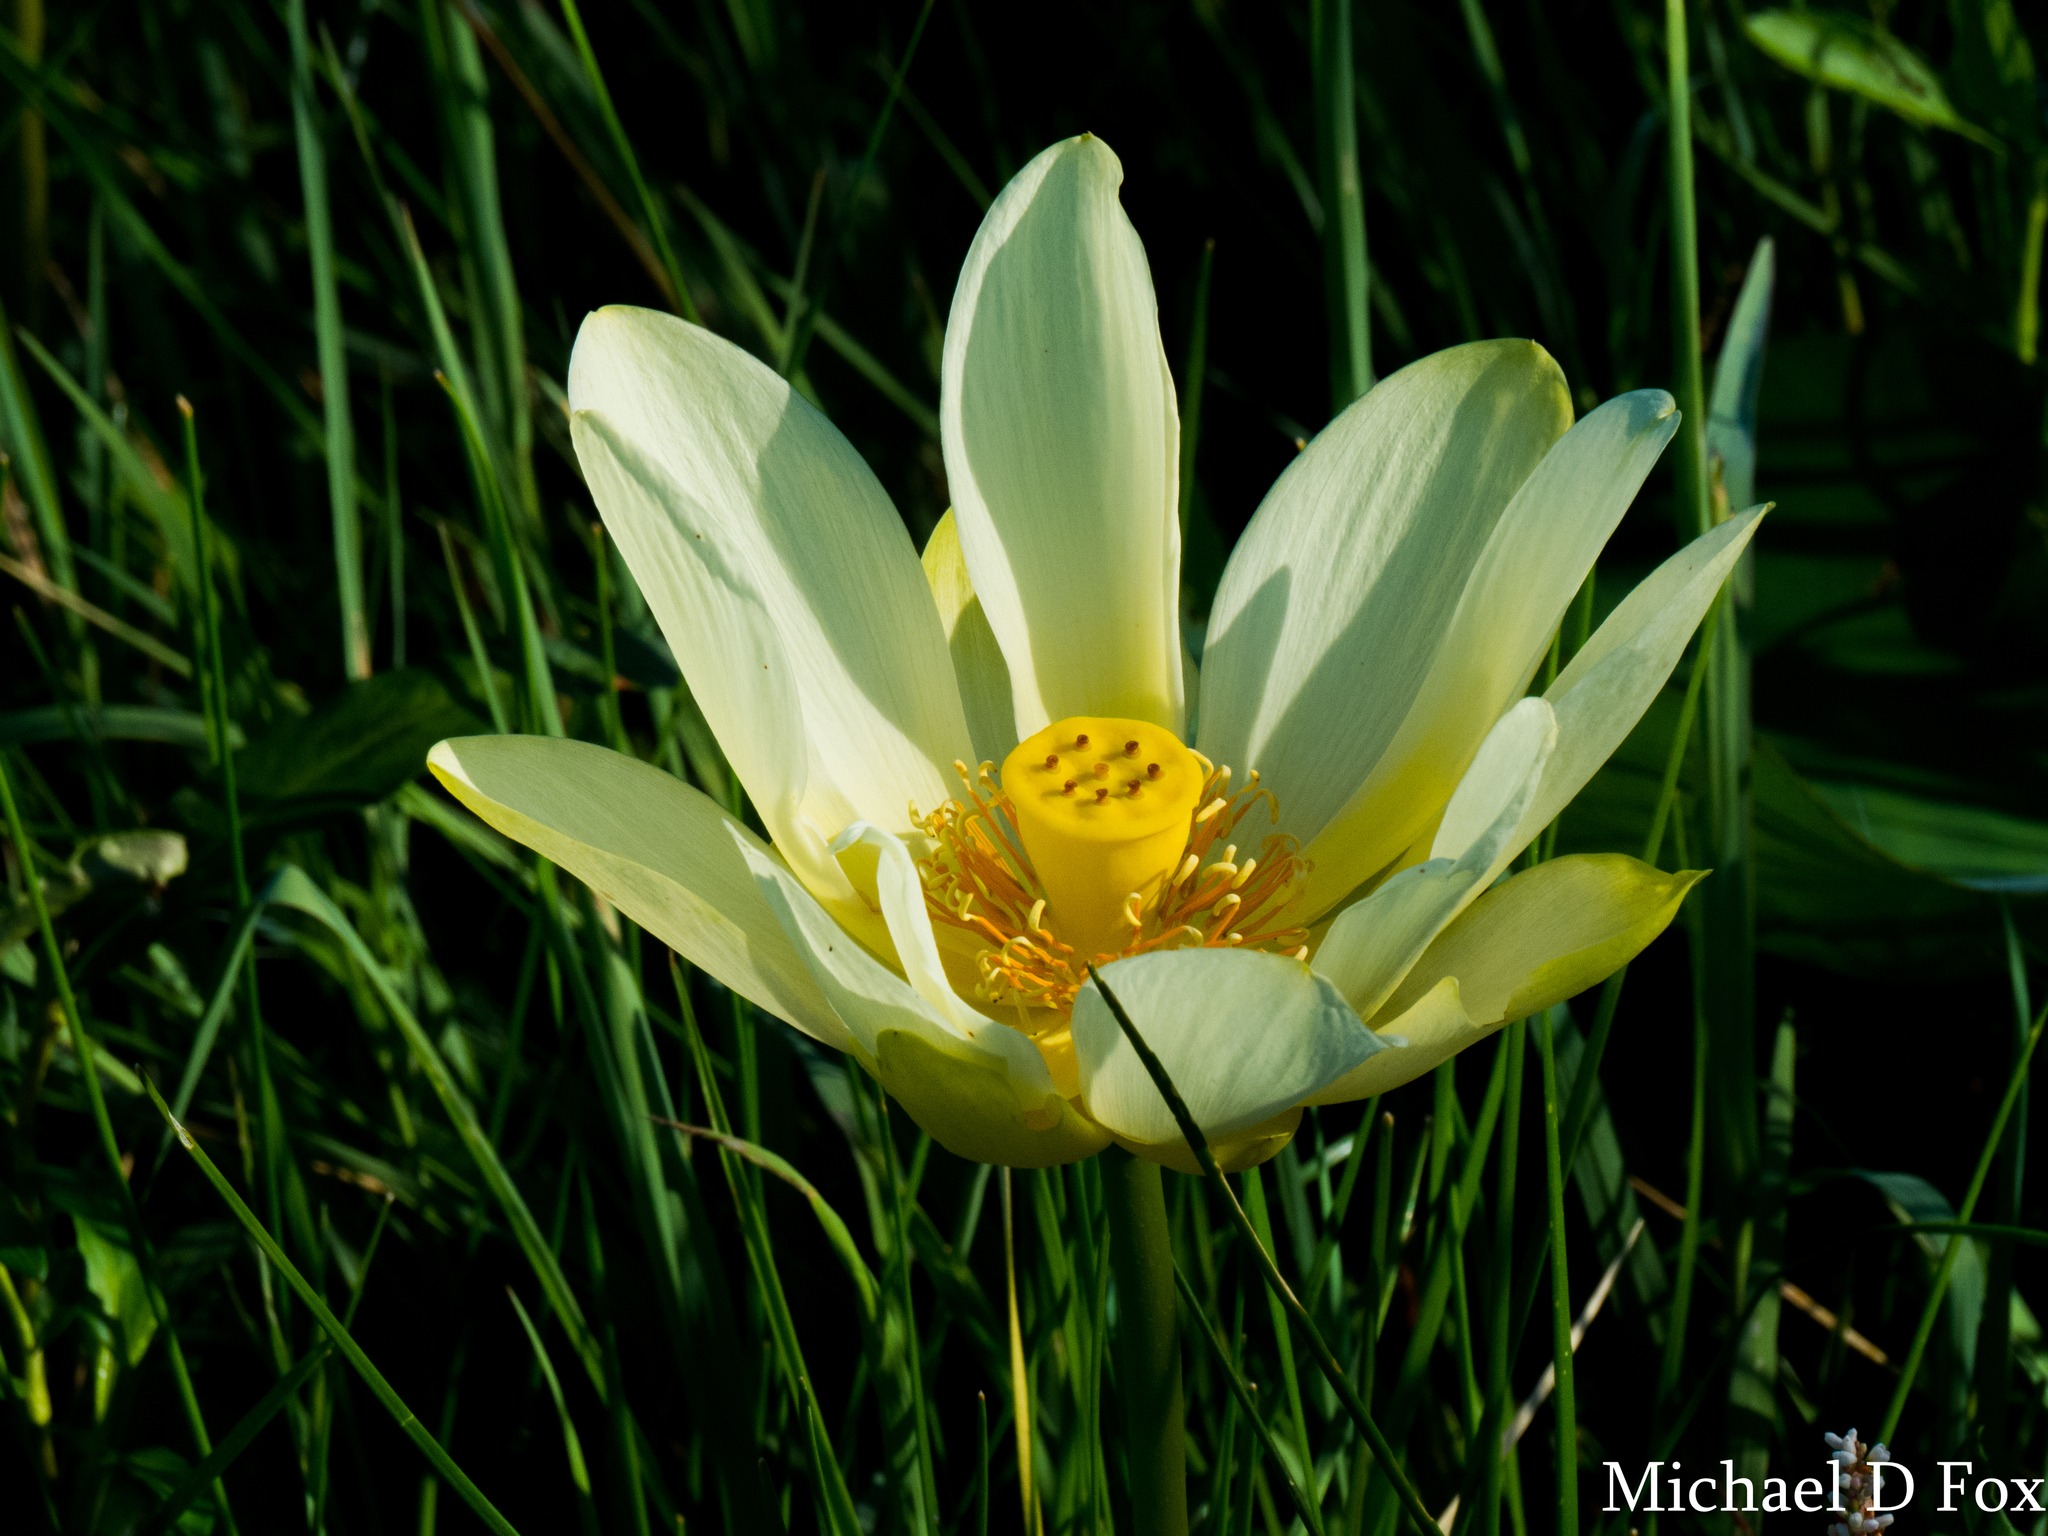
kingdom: Plantae
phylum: Tracheophyta
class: Magnoliopsida
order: Proteales
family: Nelumbonaceae
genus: Nelumbo
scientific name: Nelumbo lutea
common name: American lotus
